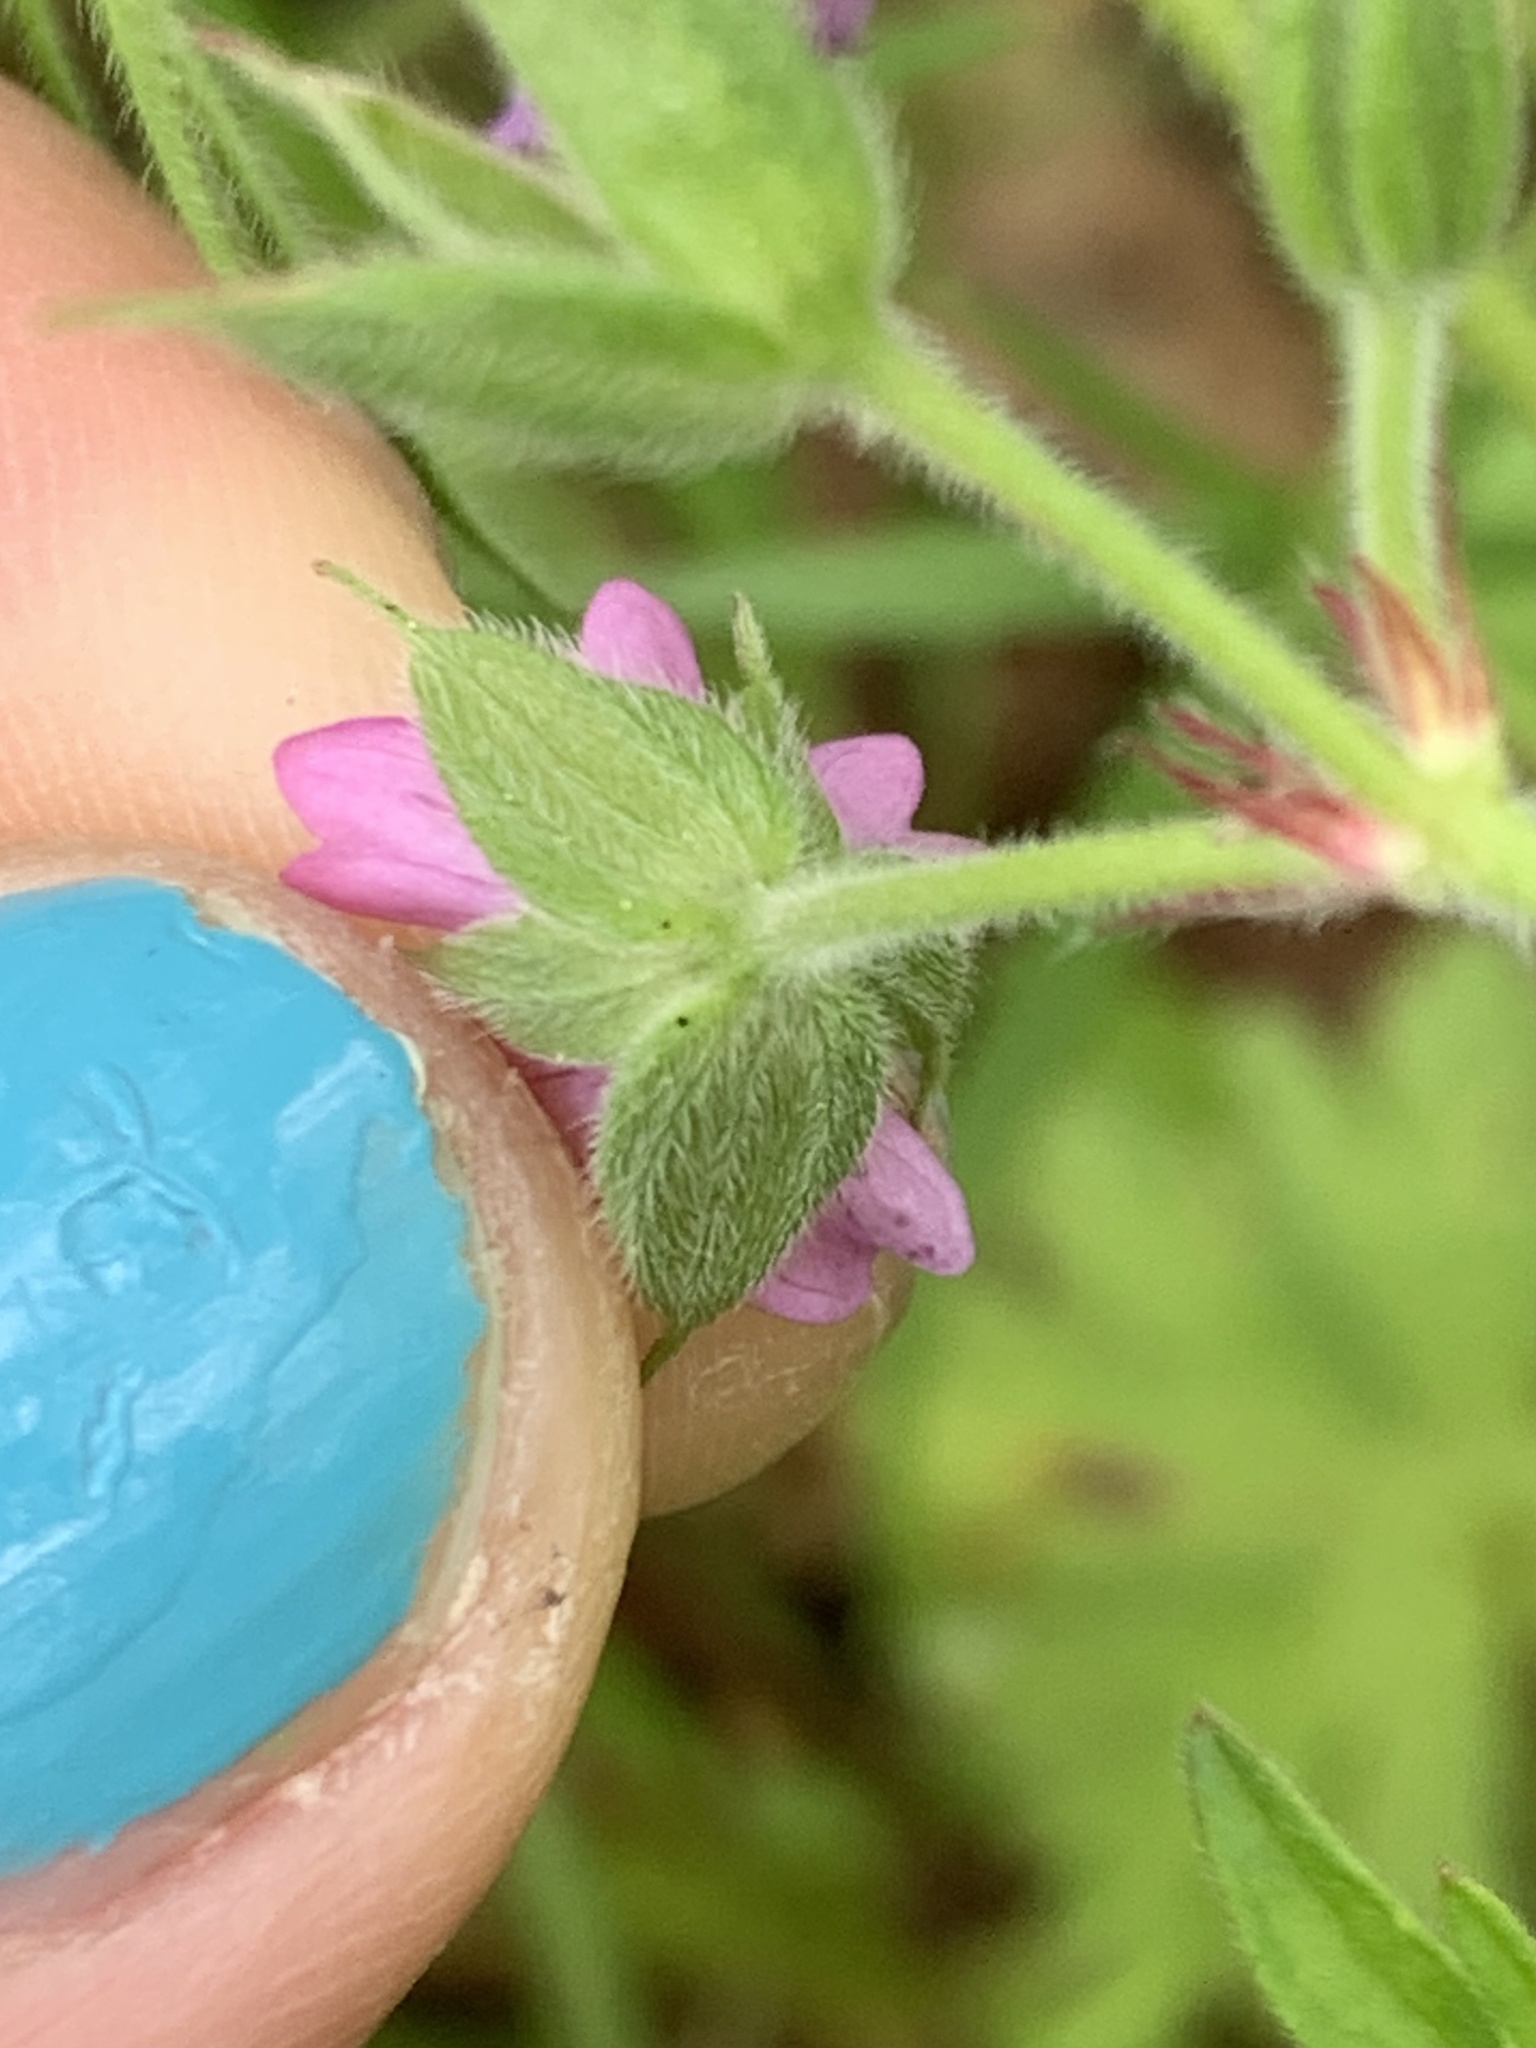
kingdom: Plantae
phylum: Tracheophyta
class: Magnoliopsida
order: Geraniales
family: Geraniaceae
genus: Geranium
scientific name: Geranium dissectum
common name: Cut-leaved crane's-bill
